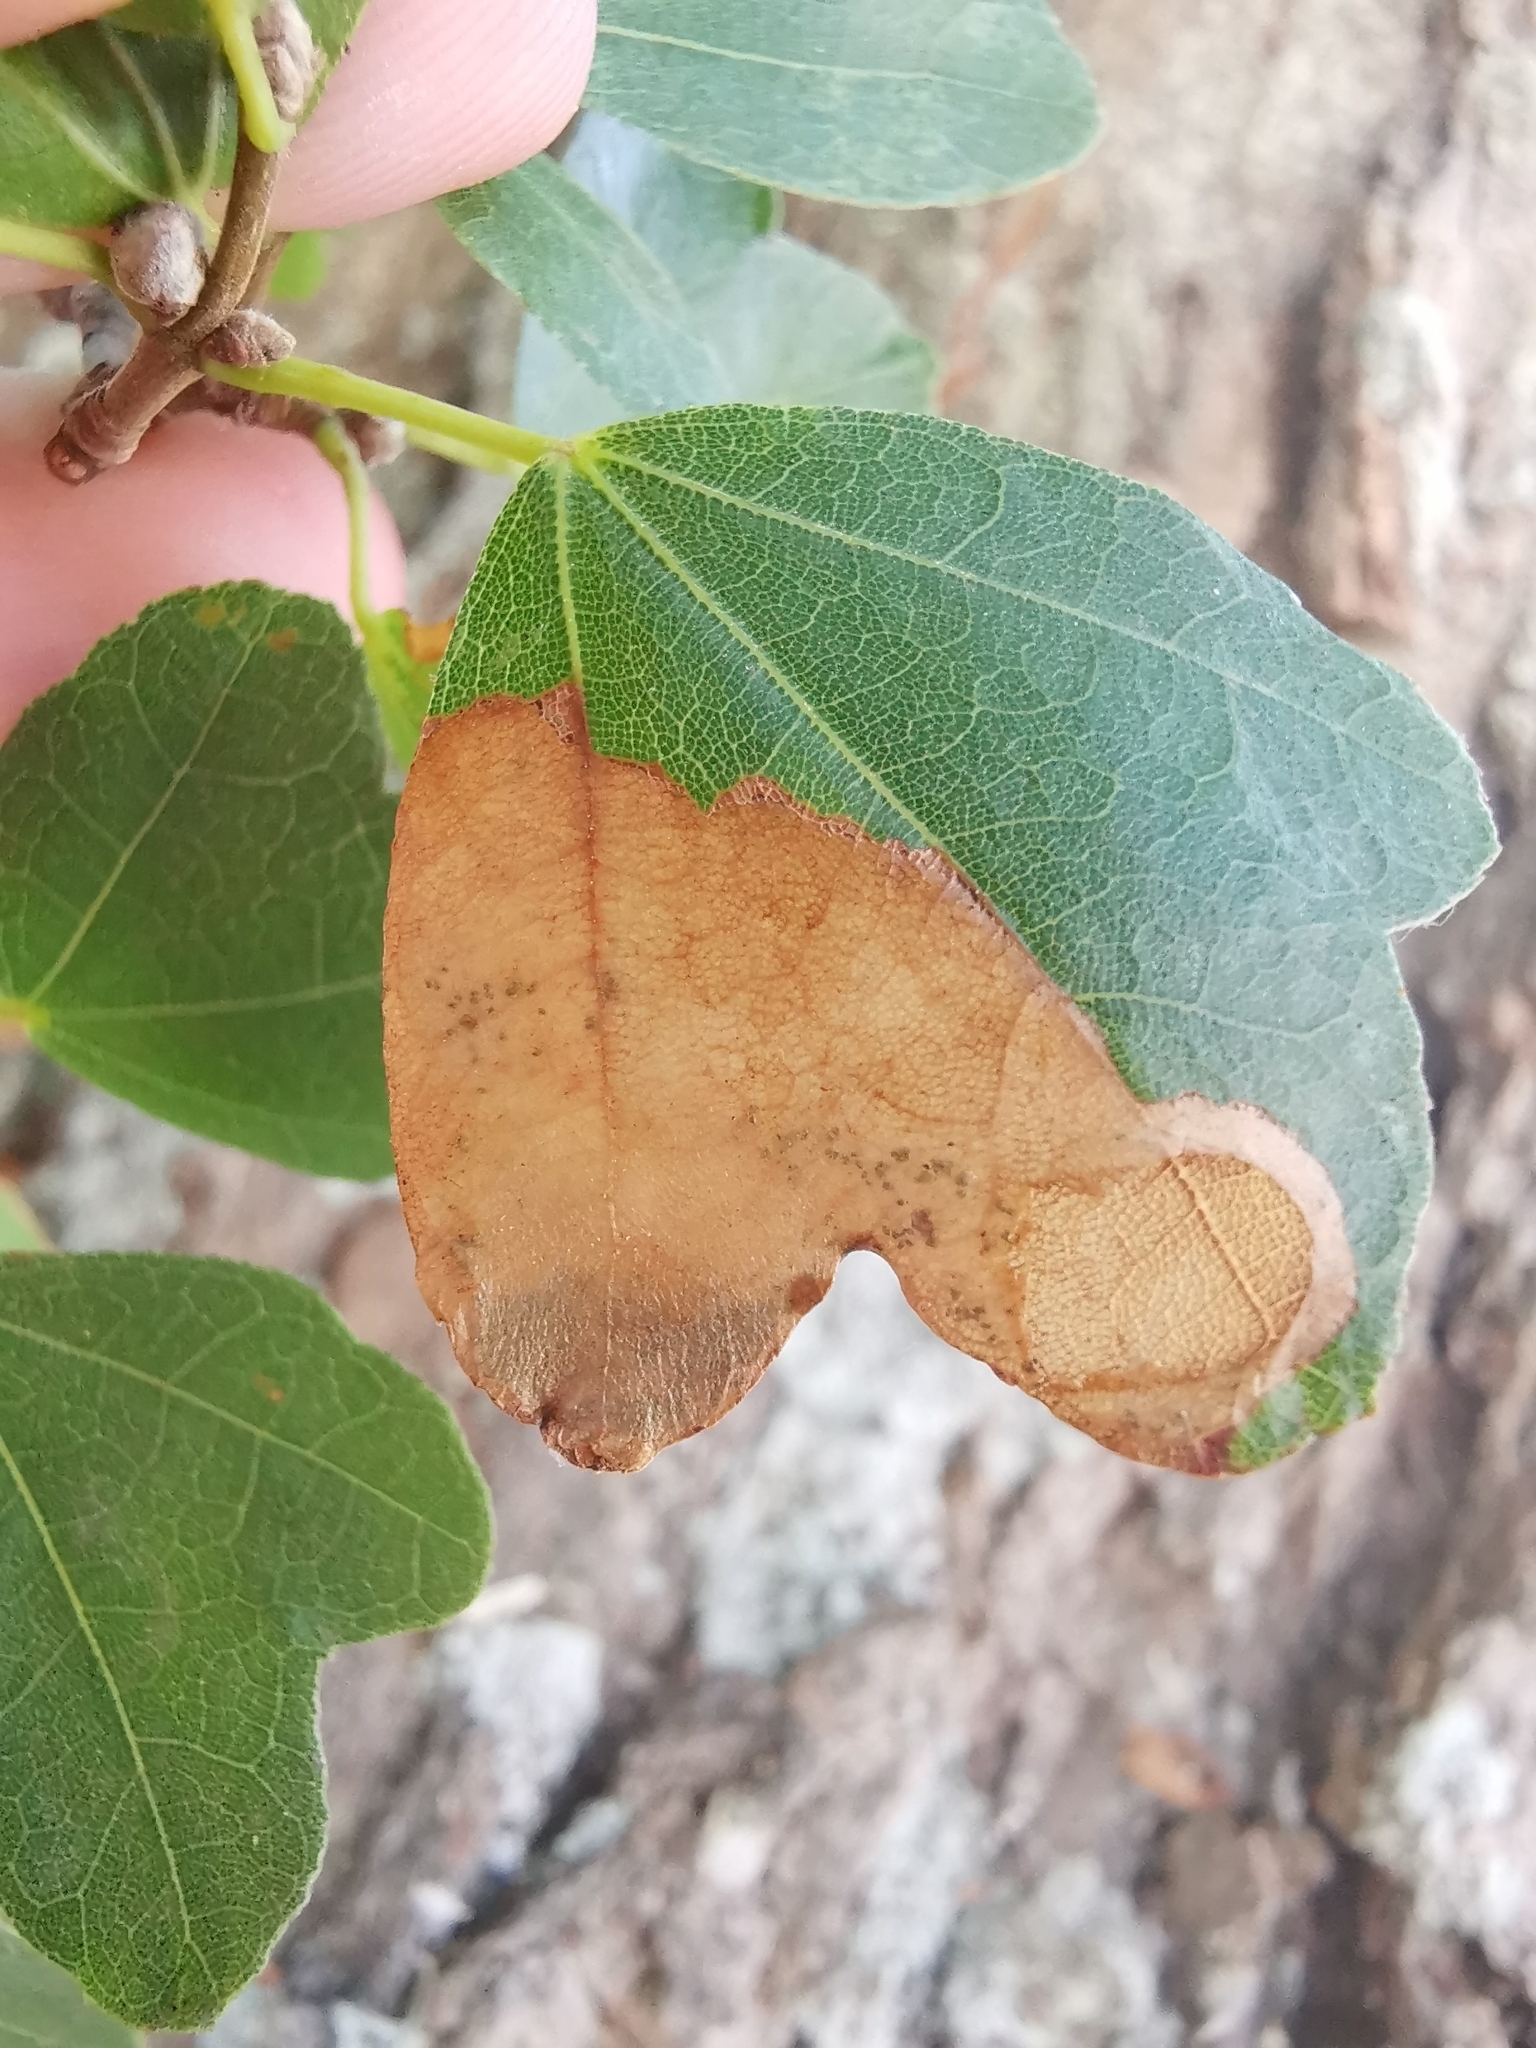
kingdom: Animalia
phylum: Arthropoda
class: Insecta
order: Hymenoptera
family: Tenthredinidae
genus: Heterarthrus
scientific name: Heterarthrus wuestneii
